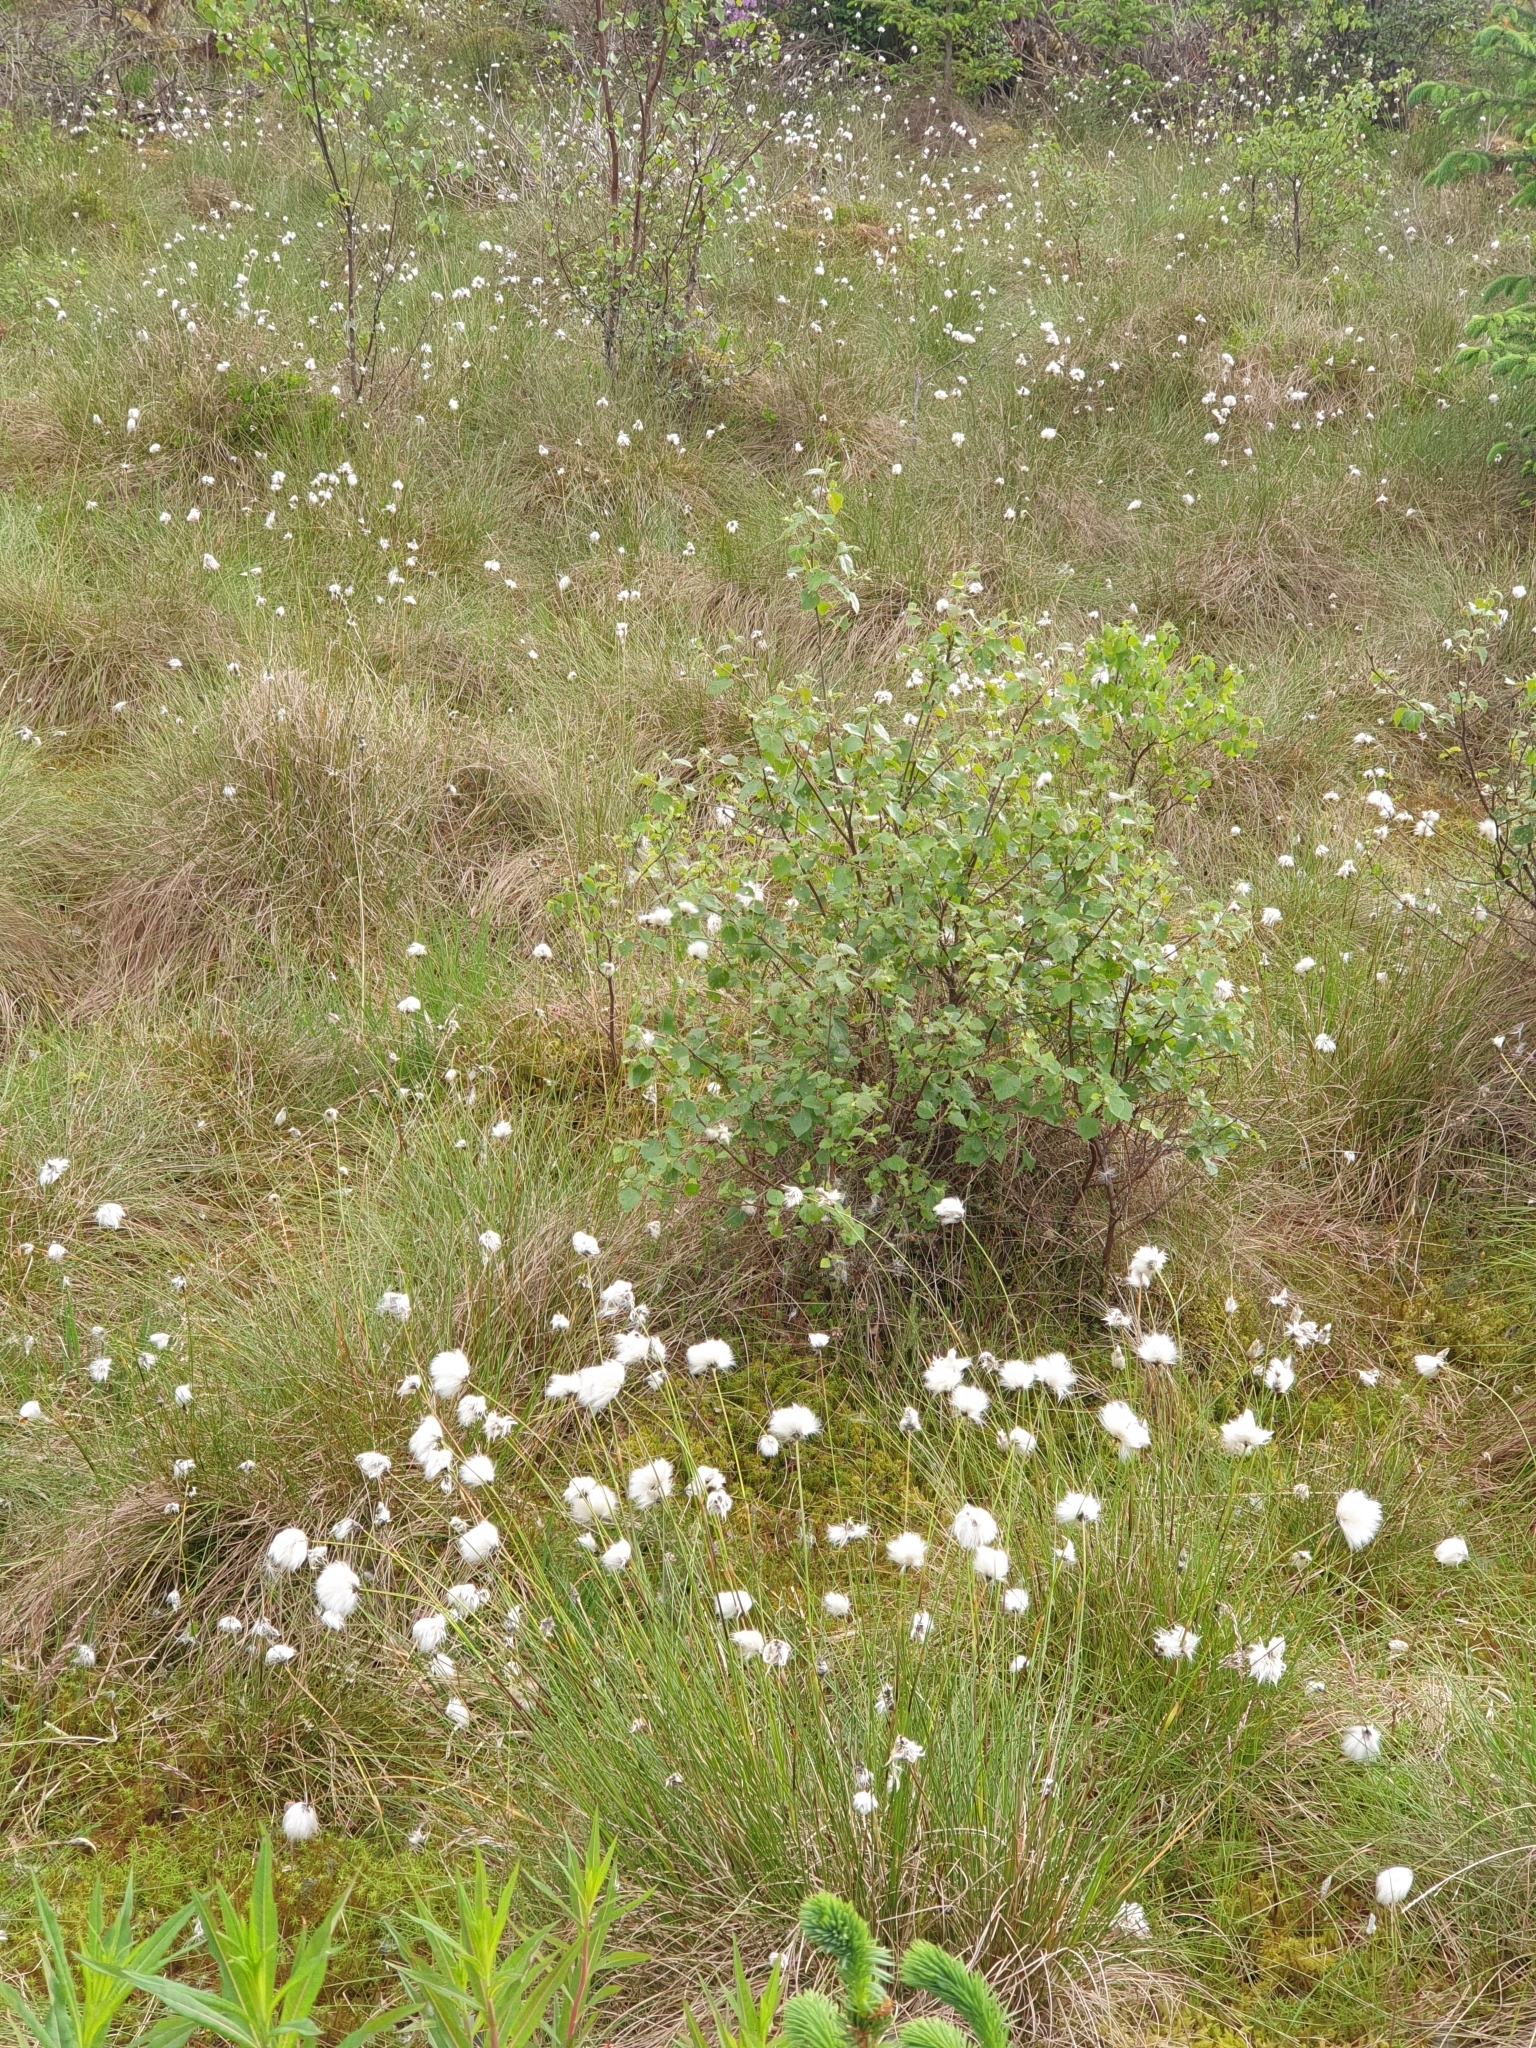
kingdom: Plantae
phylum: Tracheophyta
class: Liliopsida
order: Poales
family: Cyperaceae
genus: Eriophorum
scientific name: Eriophorum vaginatum
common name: Hare's-tail cottongrass
